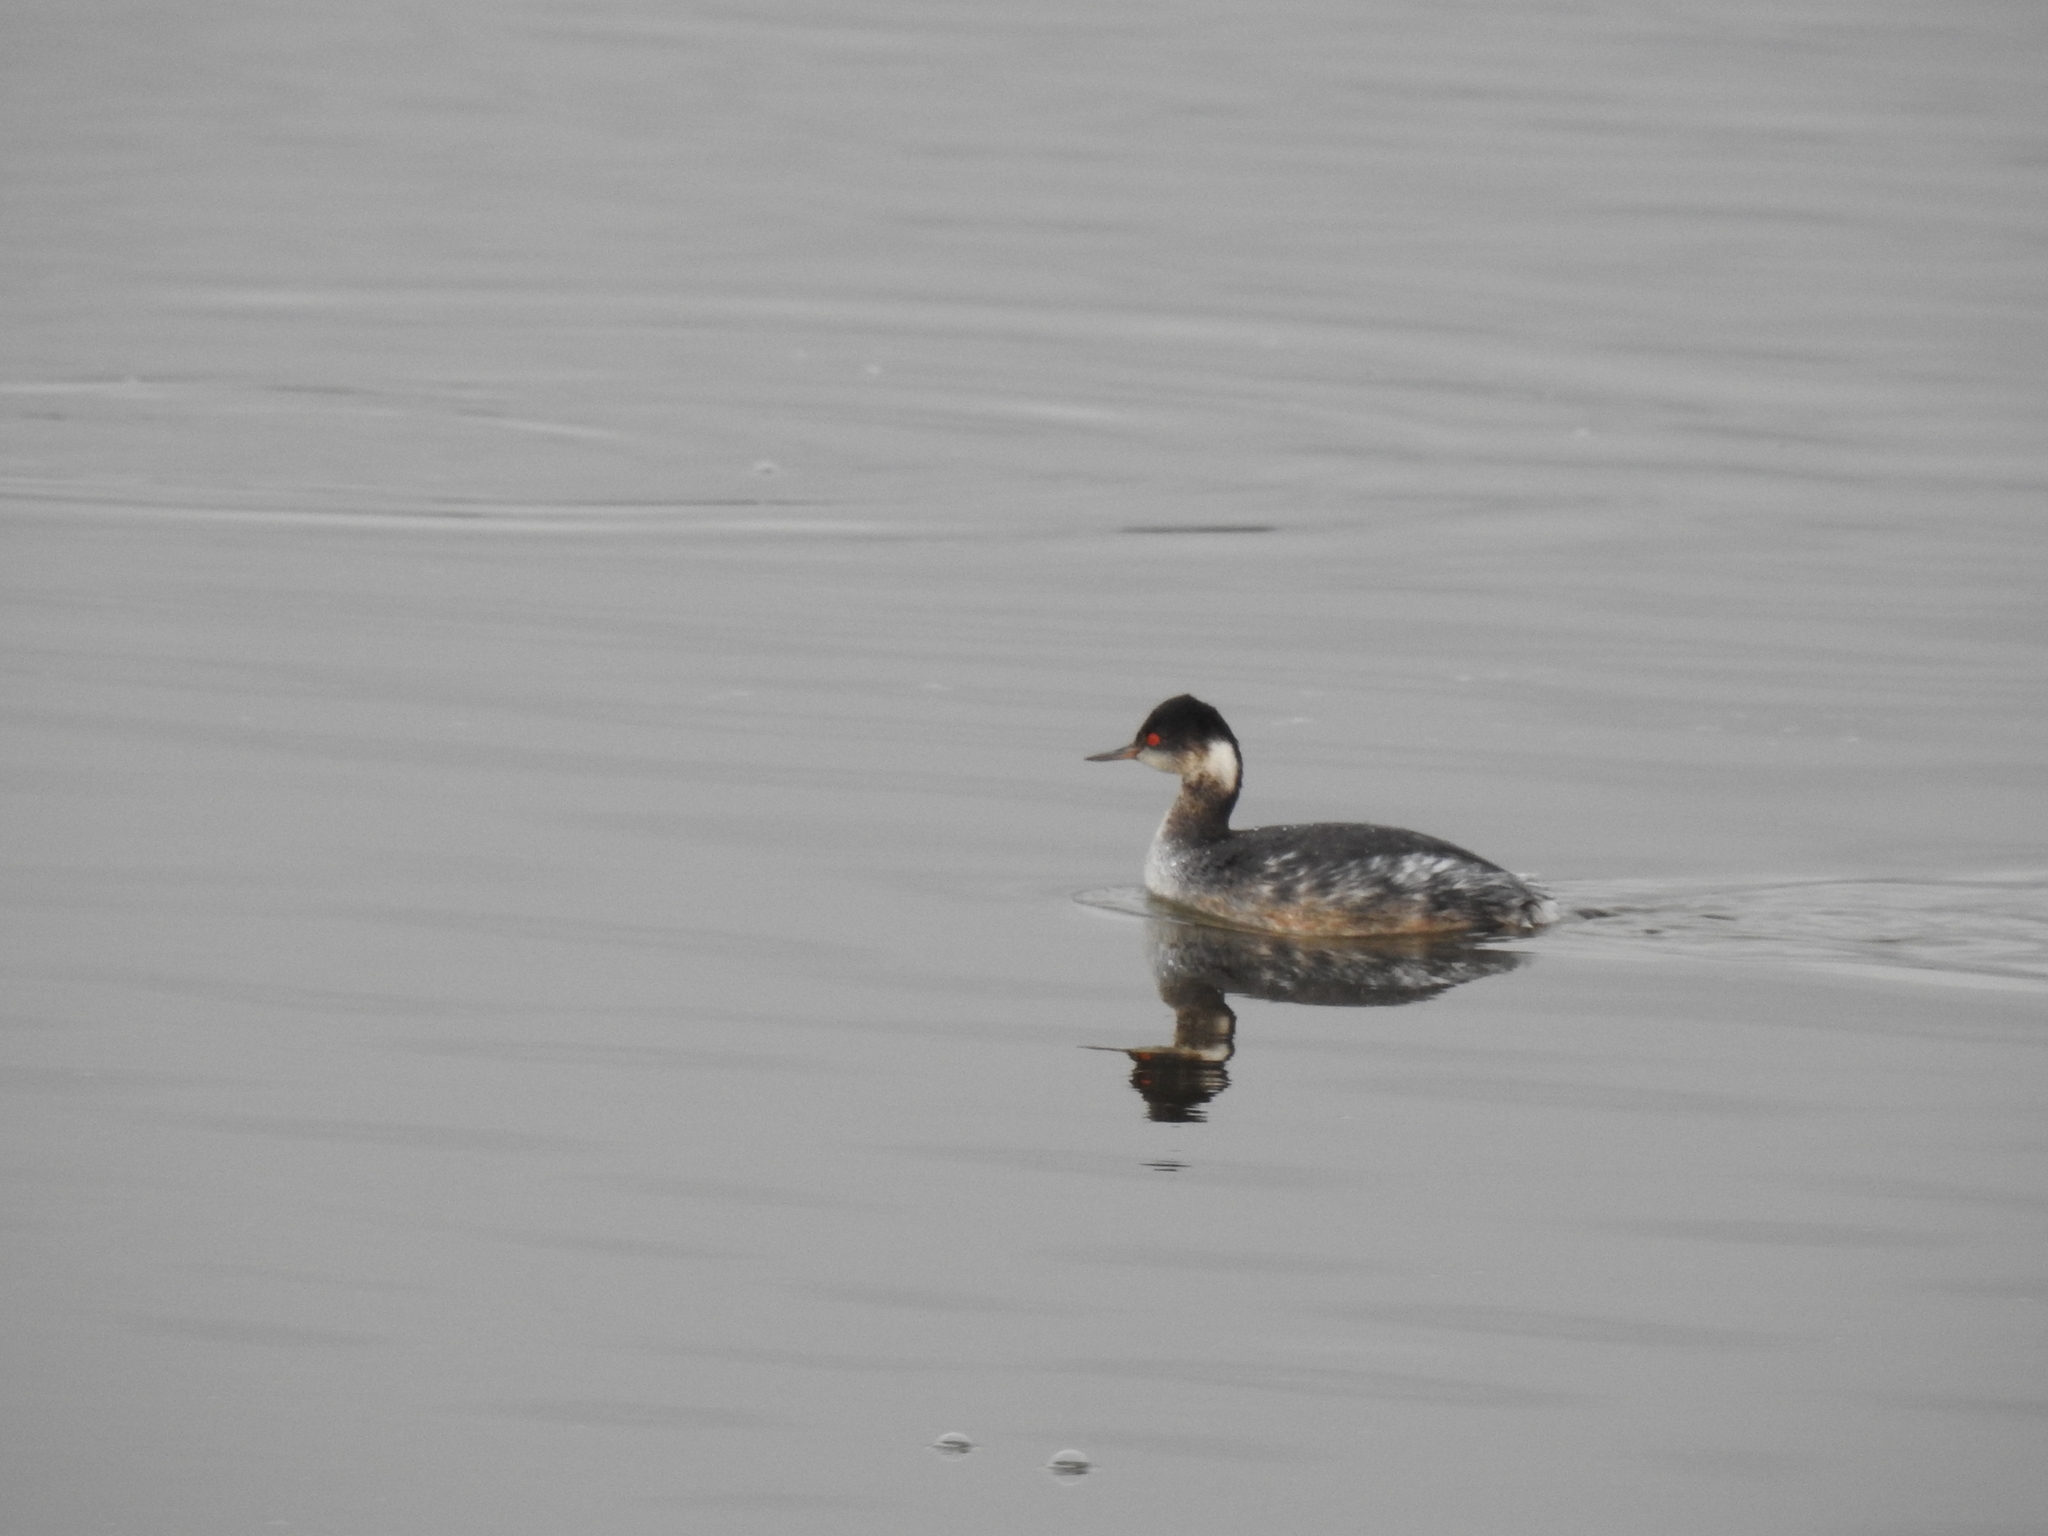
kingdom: Animalia
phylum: Chordata
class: Aves
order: Podicipediformes
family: Podicipedidae
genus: Podiceps
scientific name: Podiceps nigricollis
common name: Black-necked grebe
